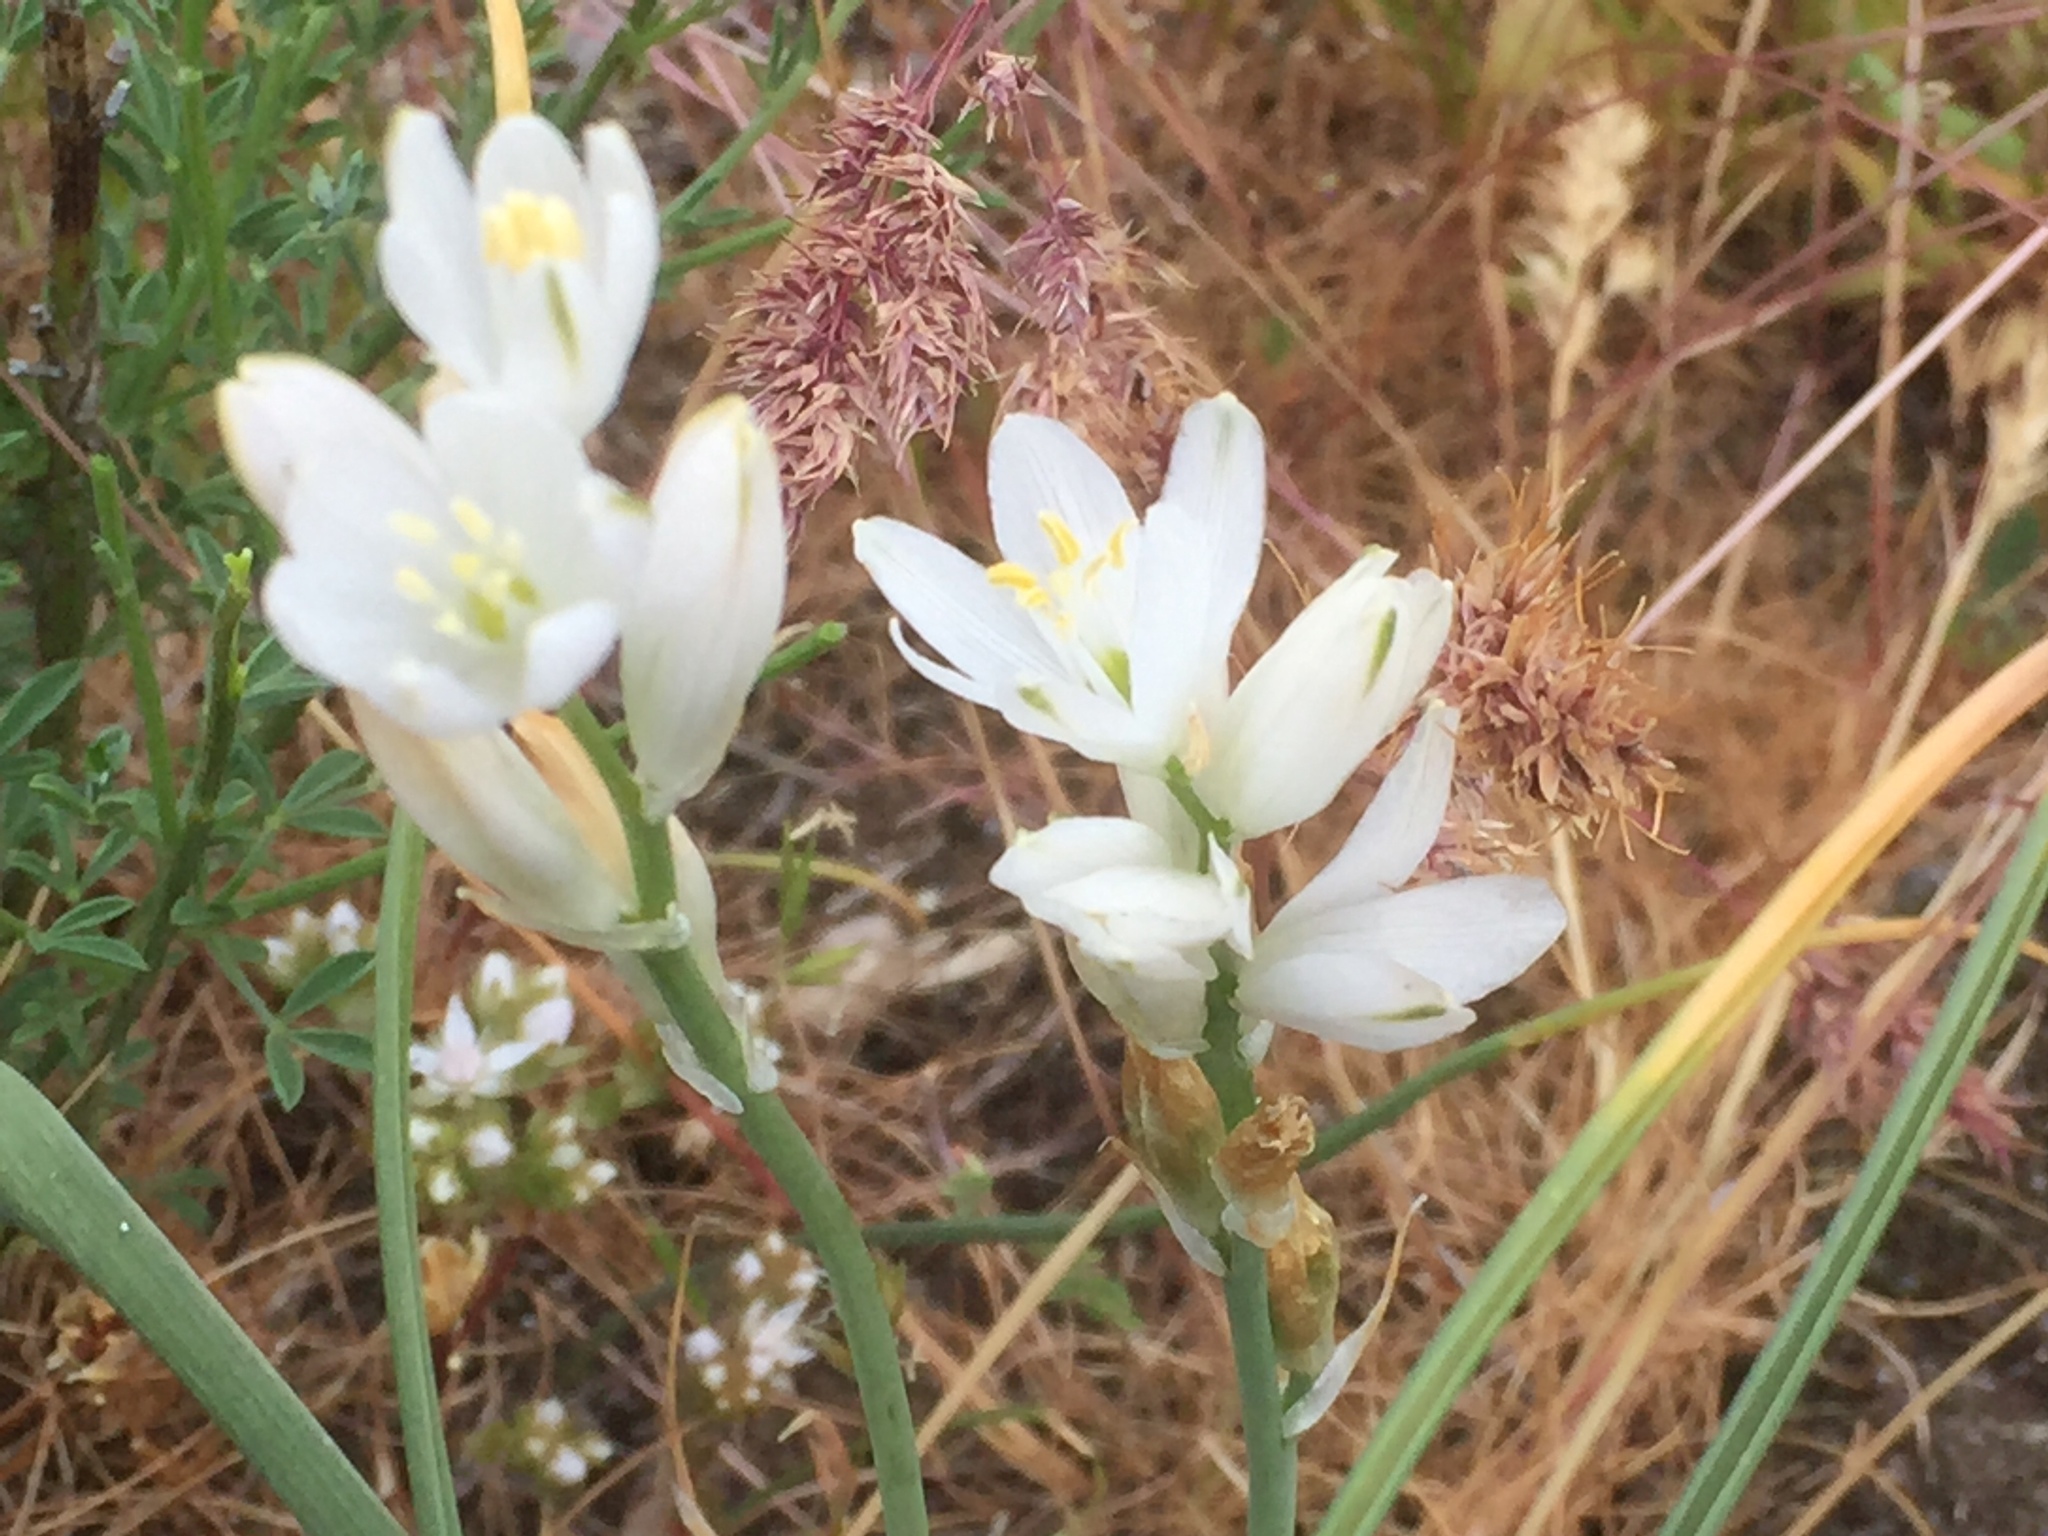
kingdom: Plantae
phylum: Tracheophyta
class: Liliopsida
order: Asparagales
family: Asparagaceae
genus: Ornithogalum
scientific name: Ornithogalum concinnum
